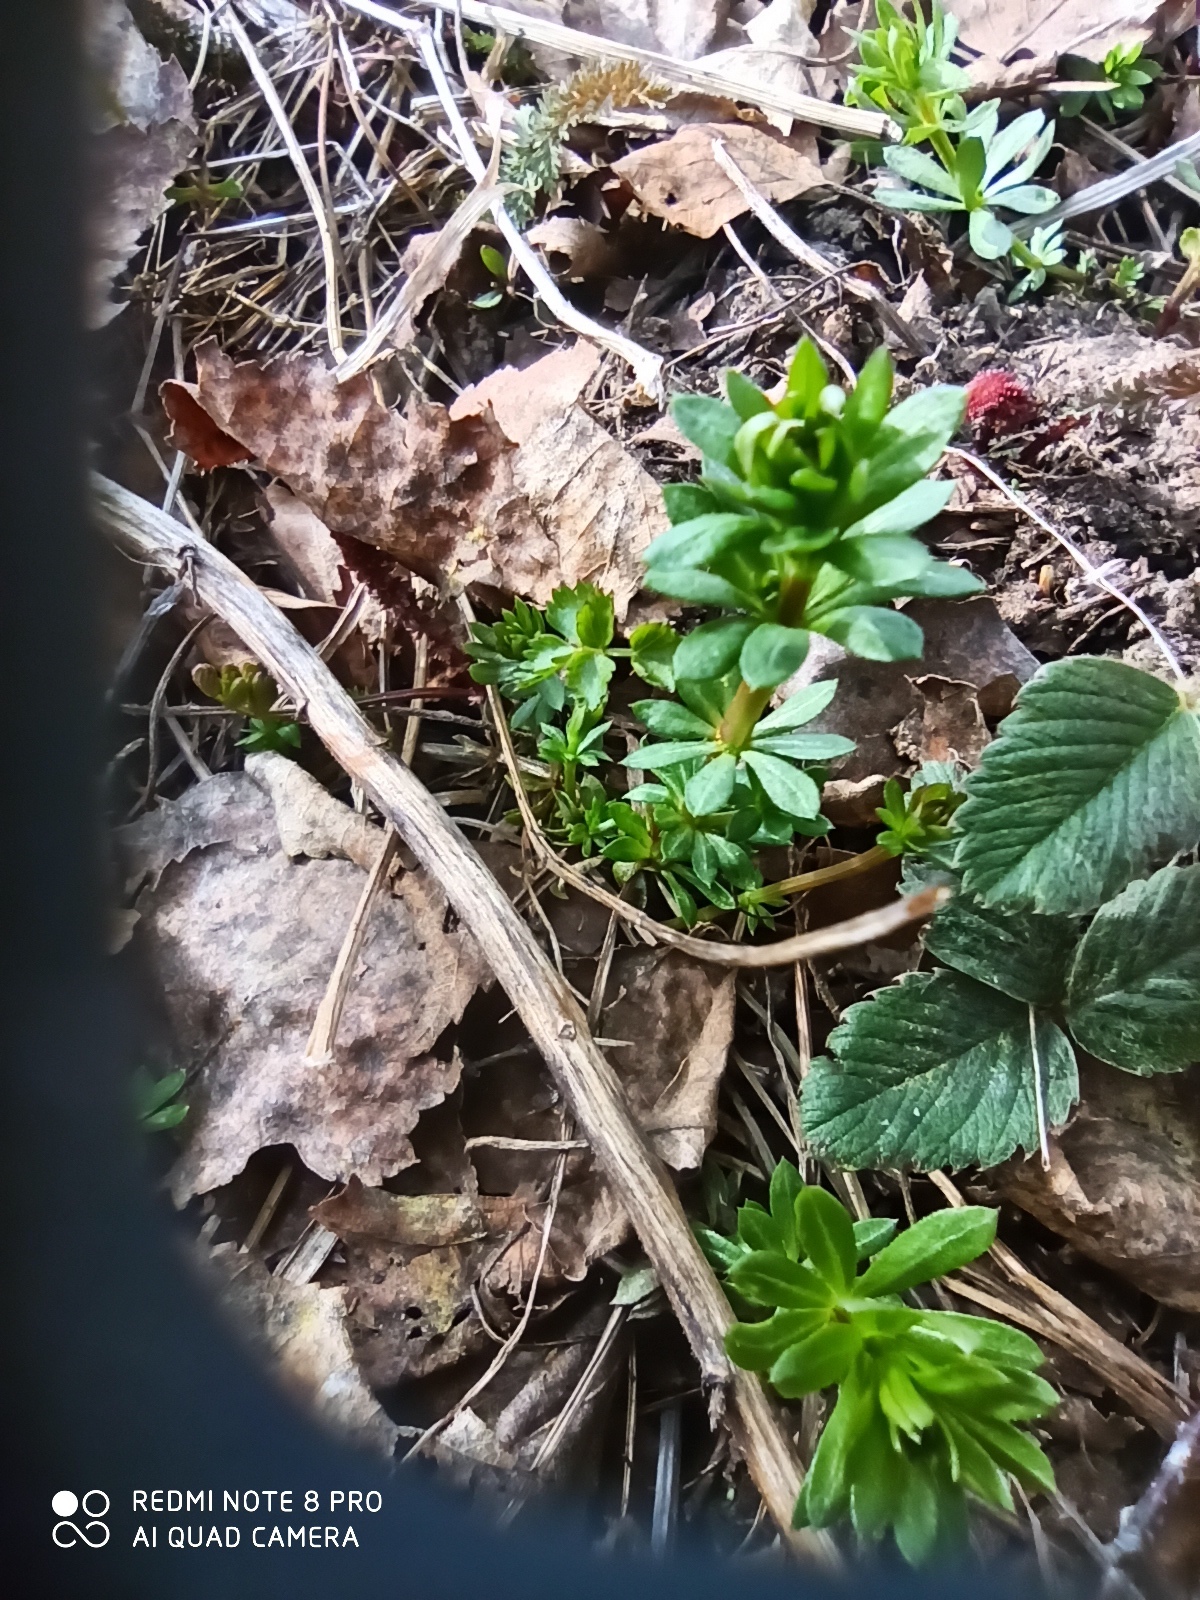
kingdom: Plantae
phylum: Tracheophyta
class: Magnoliopsida
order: Gentianales
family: Rubiaceae
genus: Galium
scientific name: Galium mollugo
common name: Hedge bedstraw
